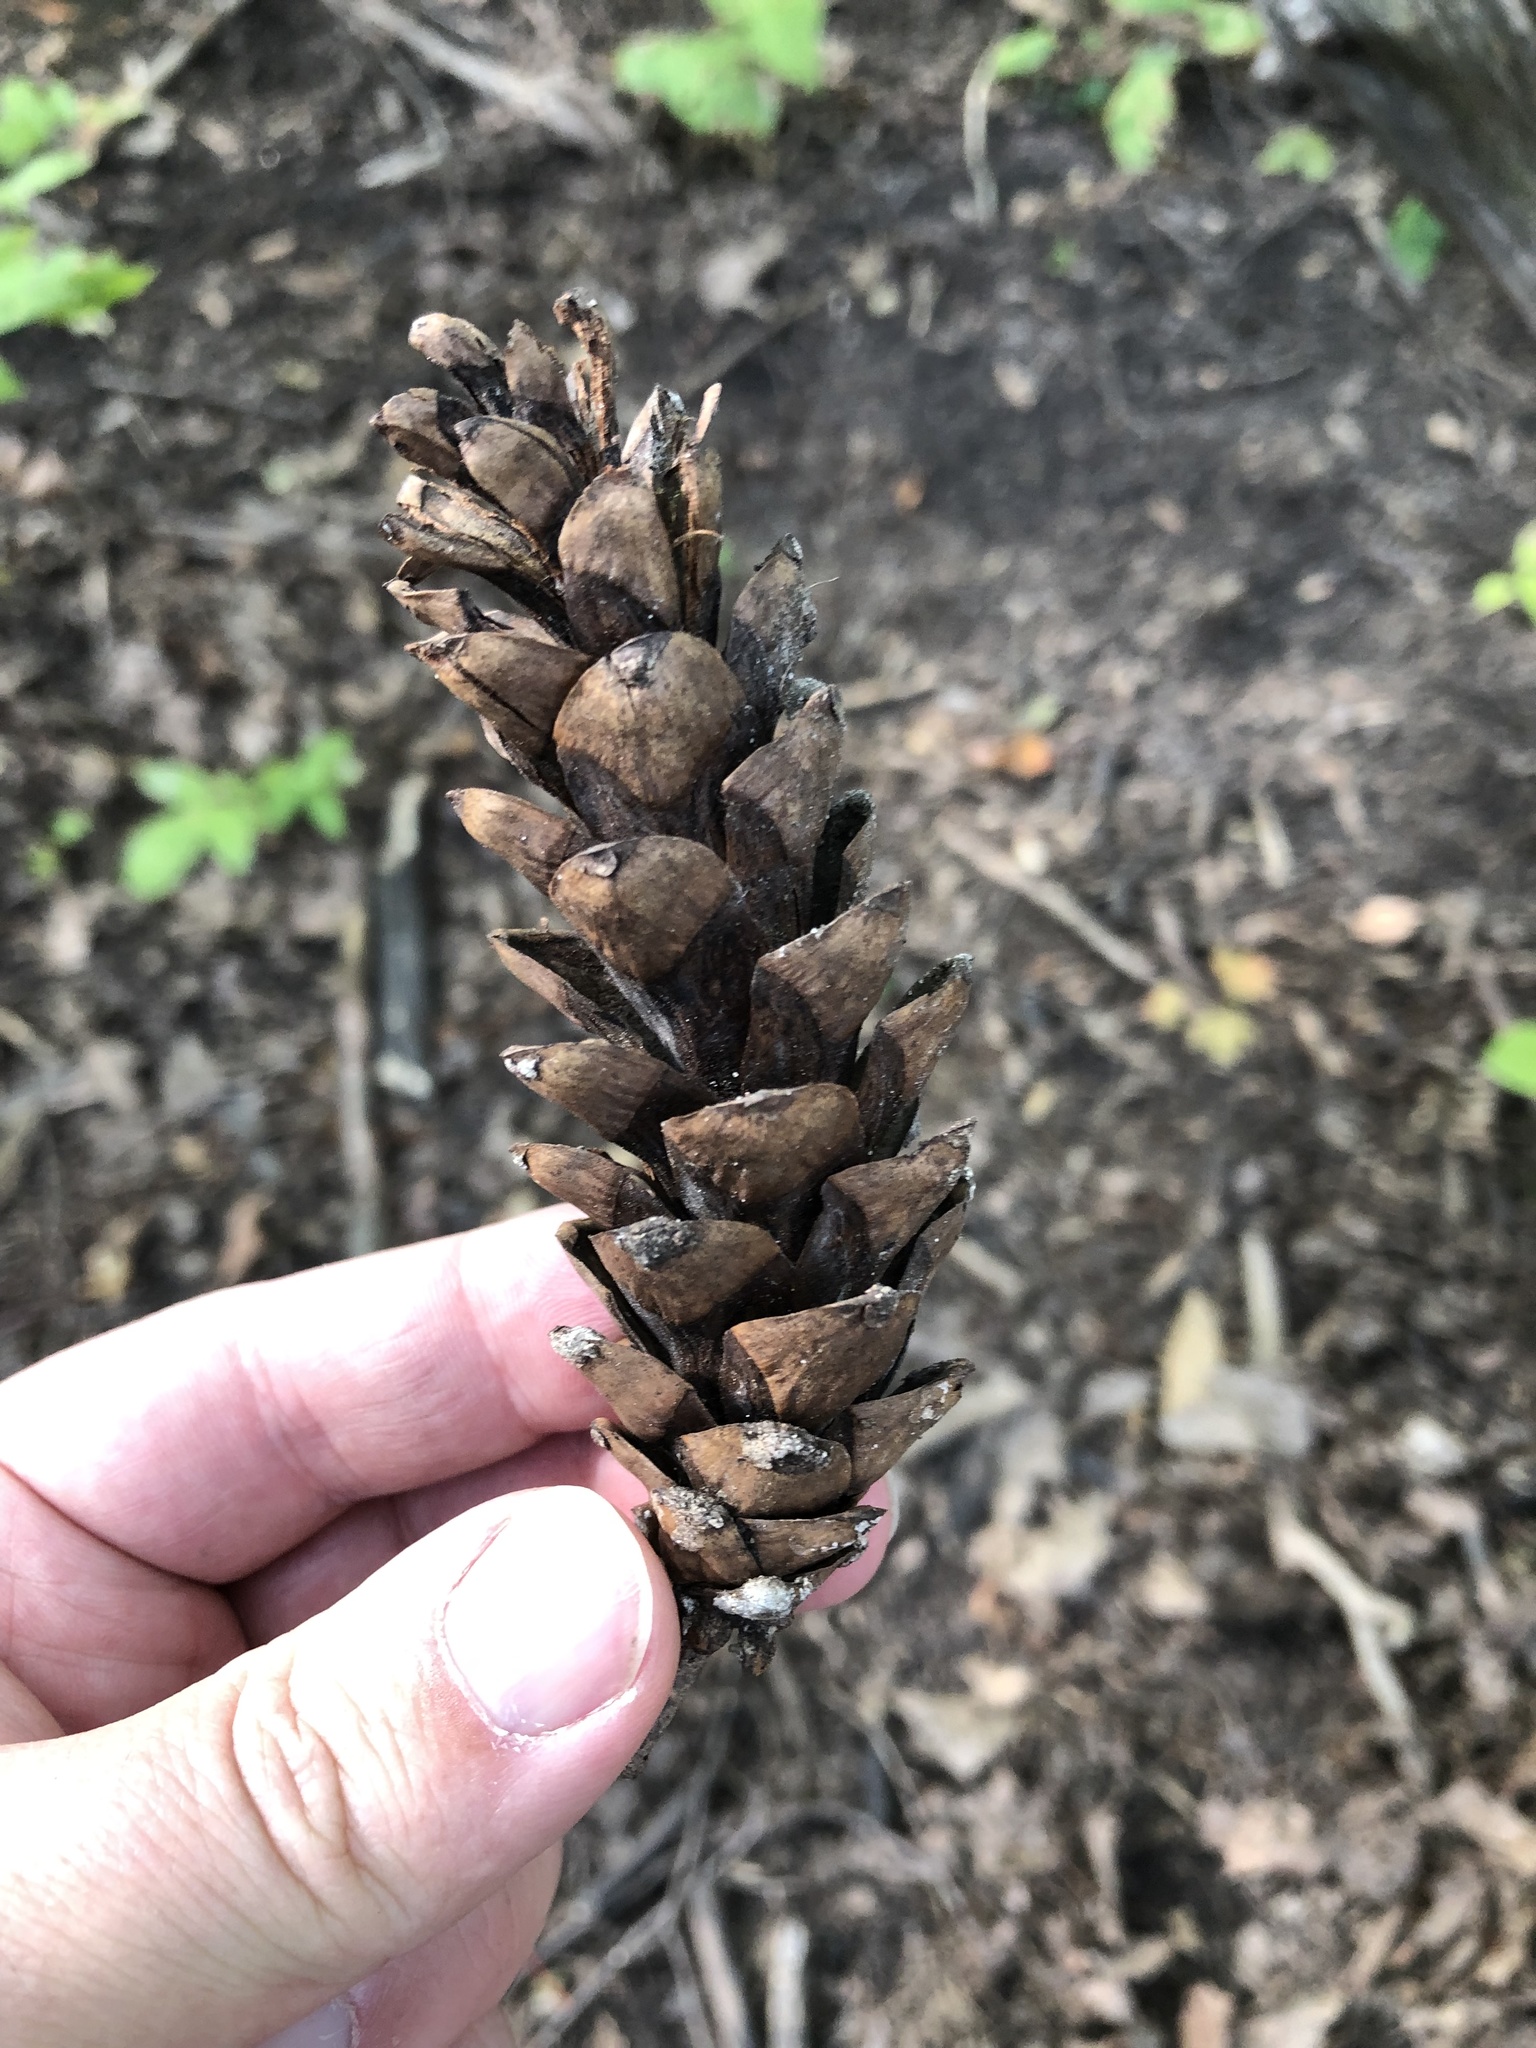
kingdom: Plantae
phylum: Tracheophyta
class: Pinopsida
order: Pinales
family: Pinaceae
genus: Pinus
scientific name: Pinus strobus
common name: Weymouth pine
